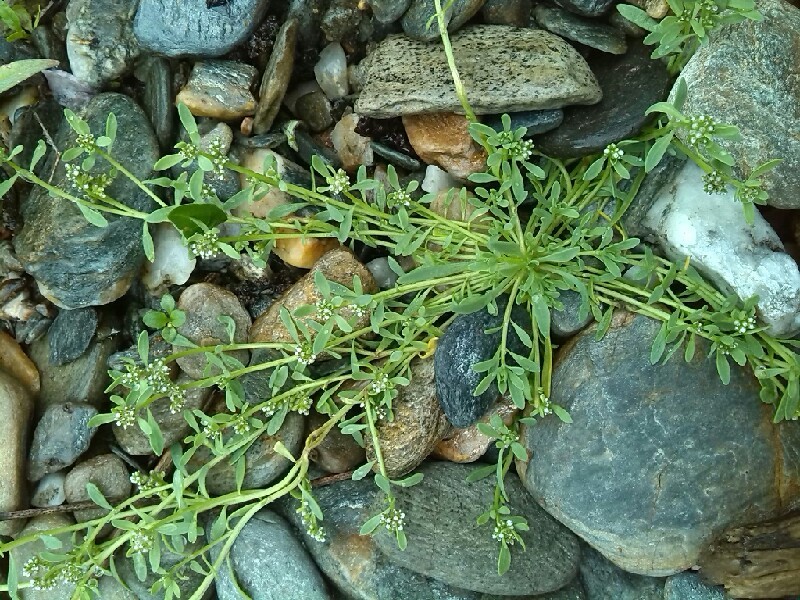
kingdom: Plantae
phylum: Tracheophyta
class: Magnoliopsida
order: Caryophyllales
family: Caryophyllaceae
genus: Corrigiola
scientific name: Corrigiola litoralis
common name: Strapwort
